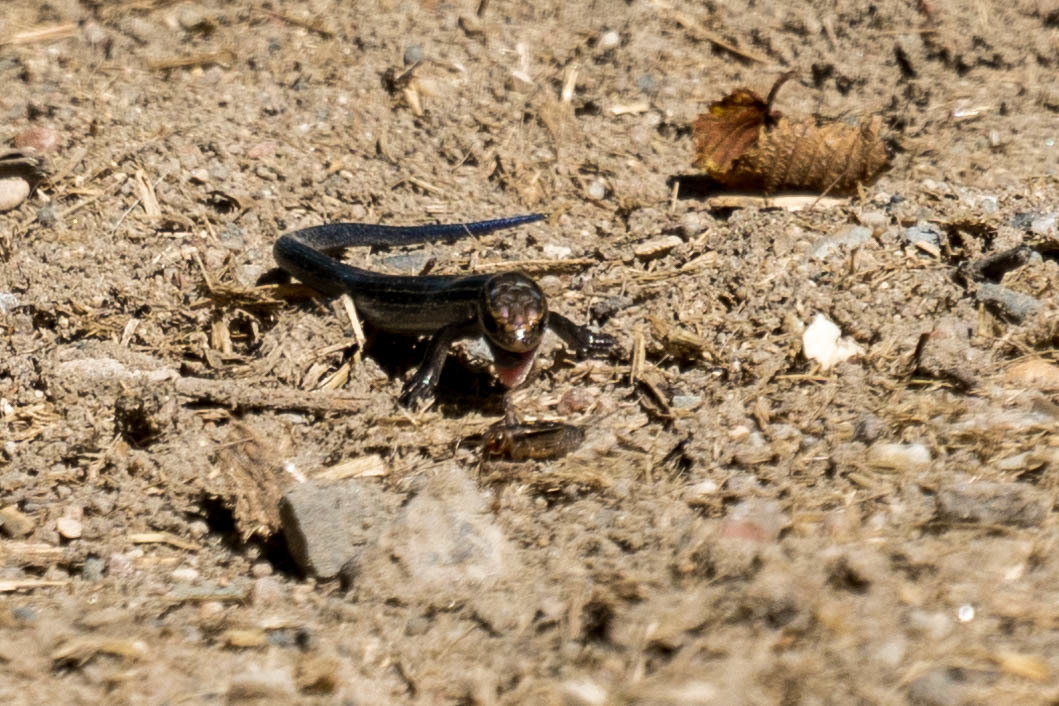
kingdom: Animalia
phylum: Chordata
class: Squamata
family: Scincidae
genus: Plestiodon
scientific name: Plestiodon septentrionalis
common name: Northern prairie skink
